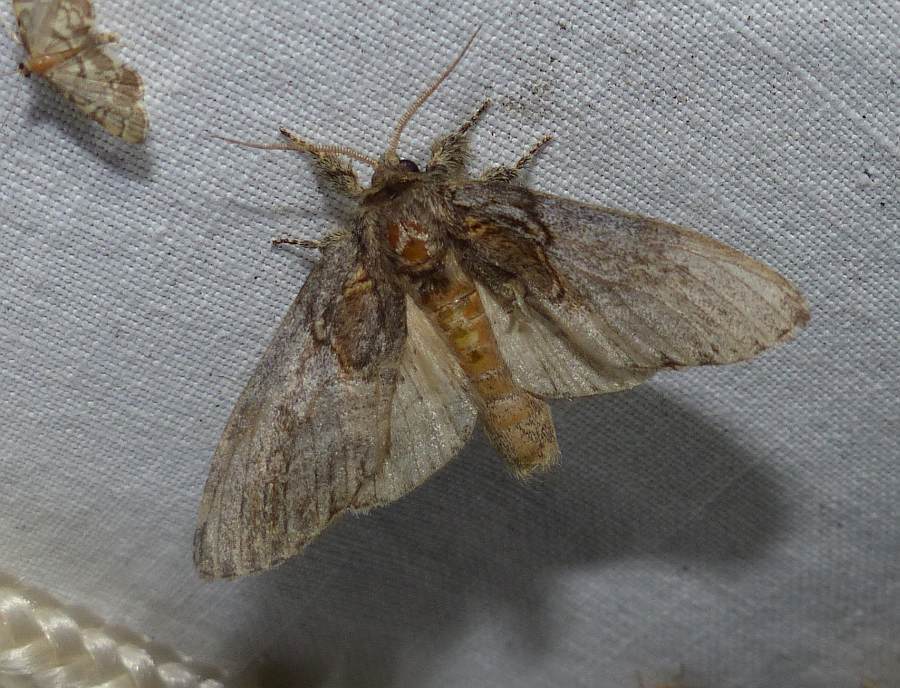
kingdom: Animalia
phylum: Arthropoda
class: Insecta
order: Lepidoptera
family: Notodontidae
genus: Peridea
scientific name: Peridea basitriens
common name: Oval-based prominent
